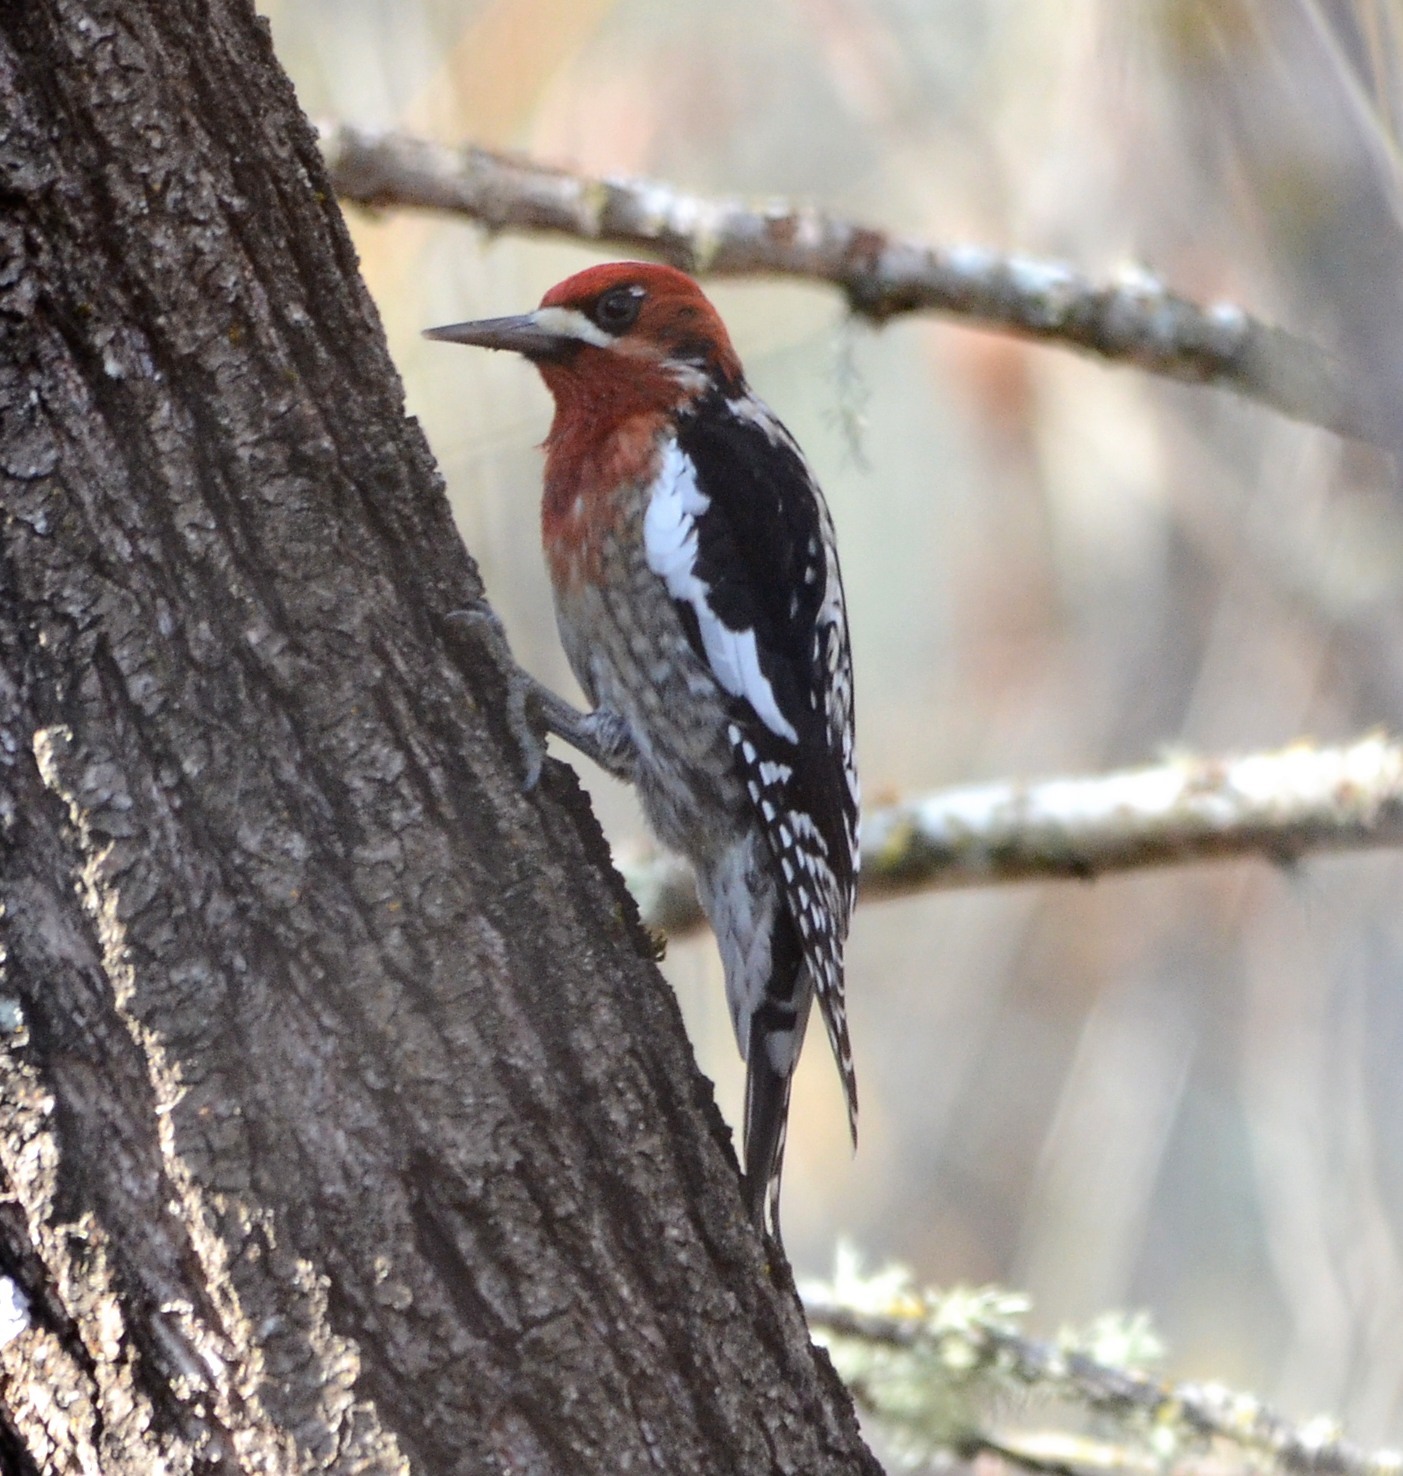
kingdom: Animalia
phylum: Chordata
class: Aves
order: Piciformes
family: Picidae
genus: Sphyrapicus
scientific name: Sphyrapicus ruber
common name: Red-breasted sapsucker
